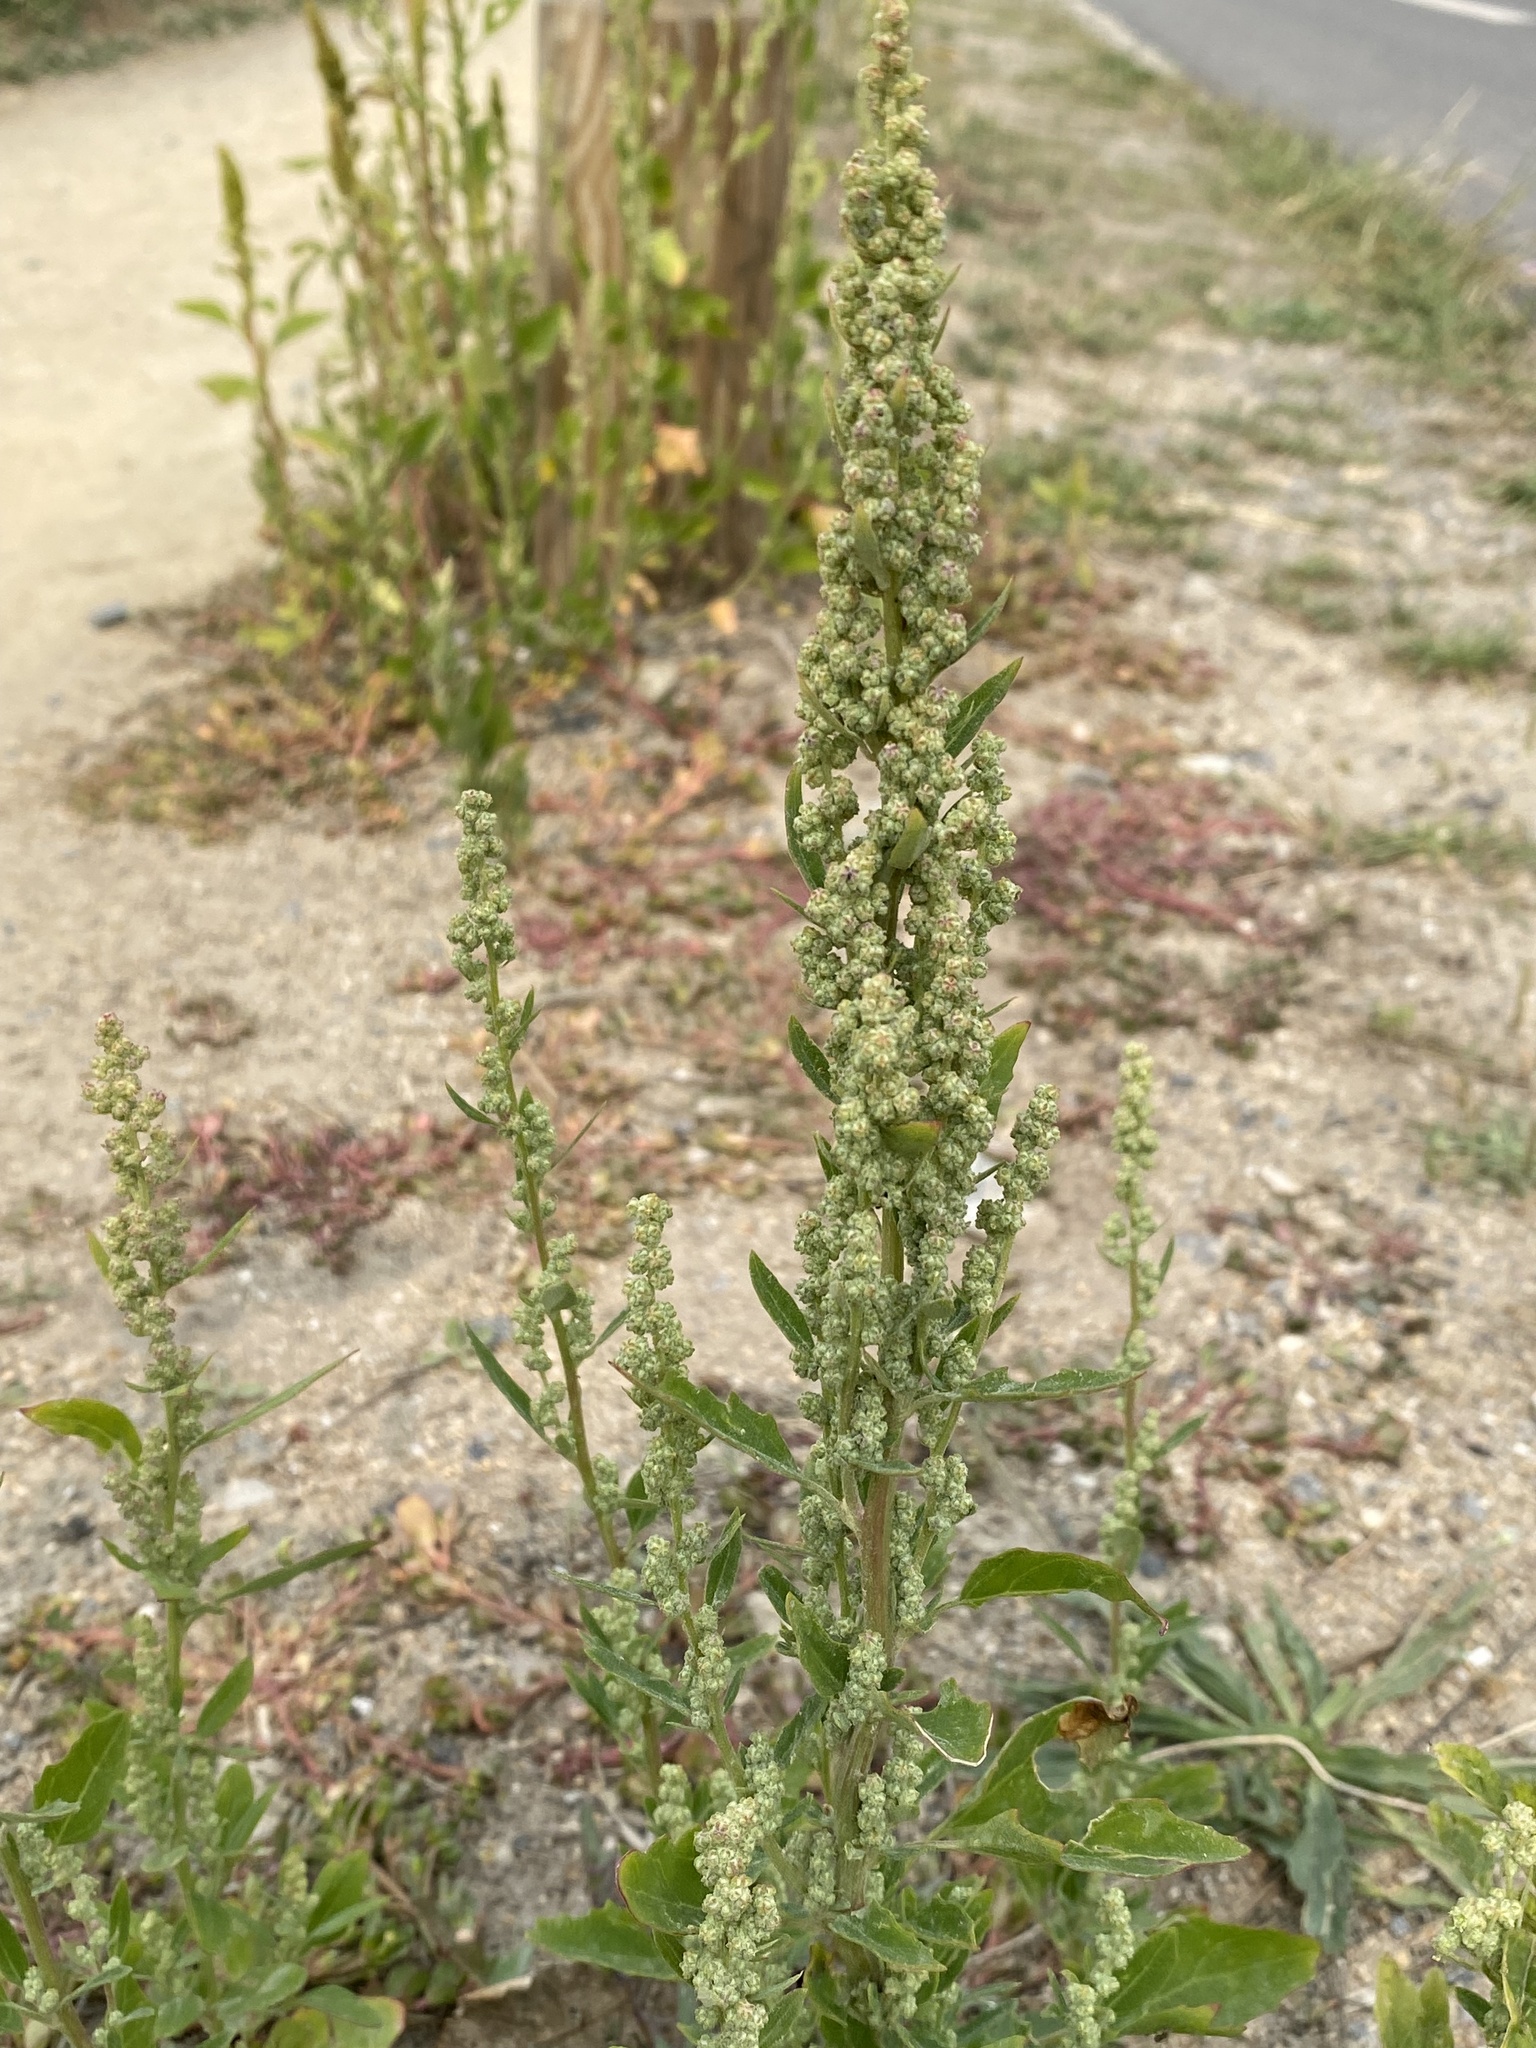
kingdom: Plantae
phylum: Tracheophyta
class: Magnoliopsida
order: Caryophyllales
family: Amaranthaceae
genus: Chenopodium
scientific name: Chenopodium album
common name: Fat-hen
